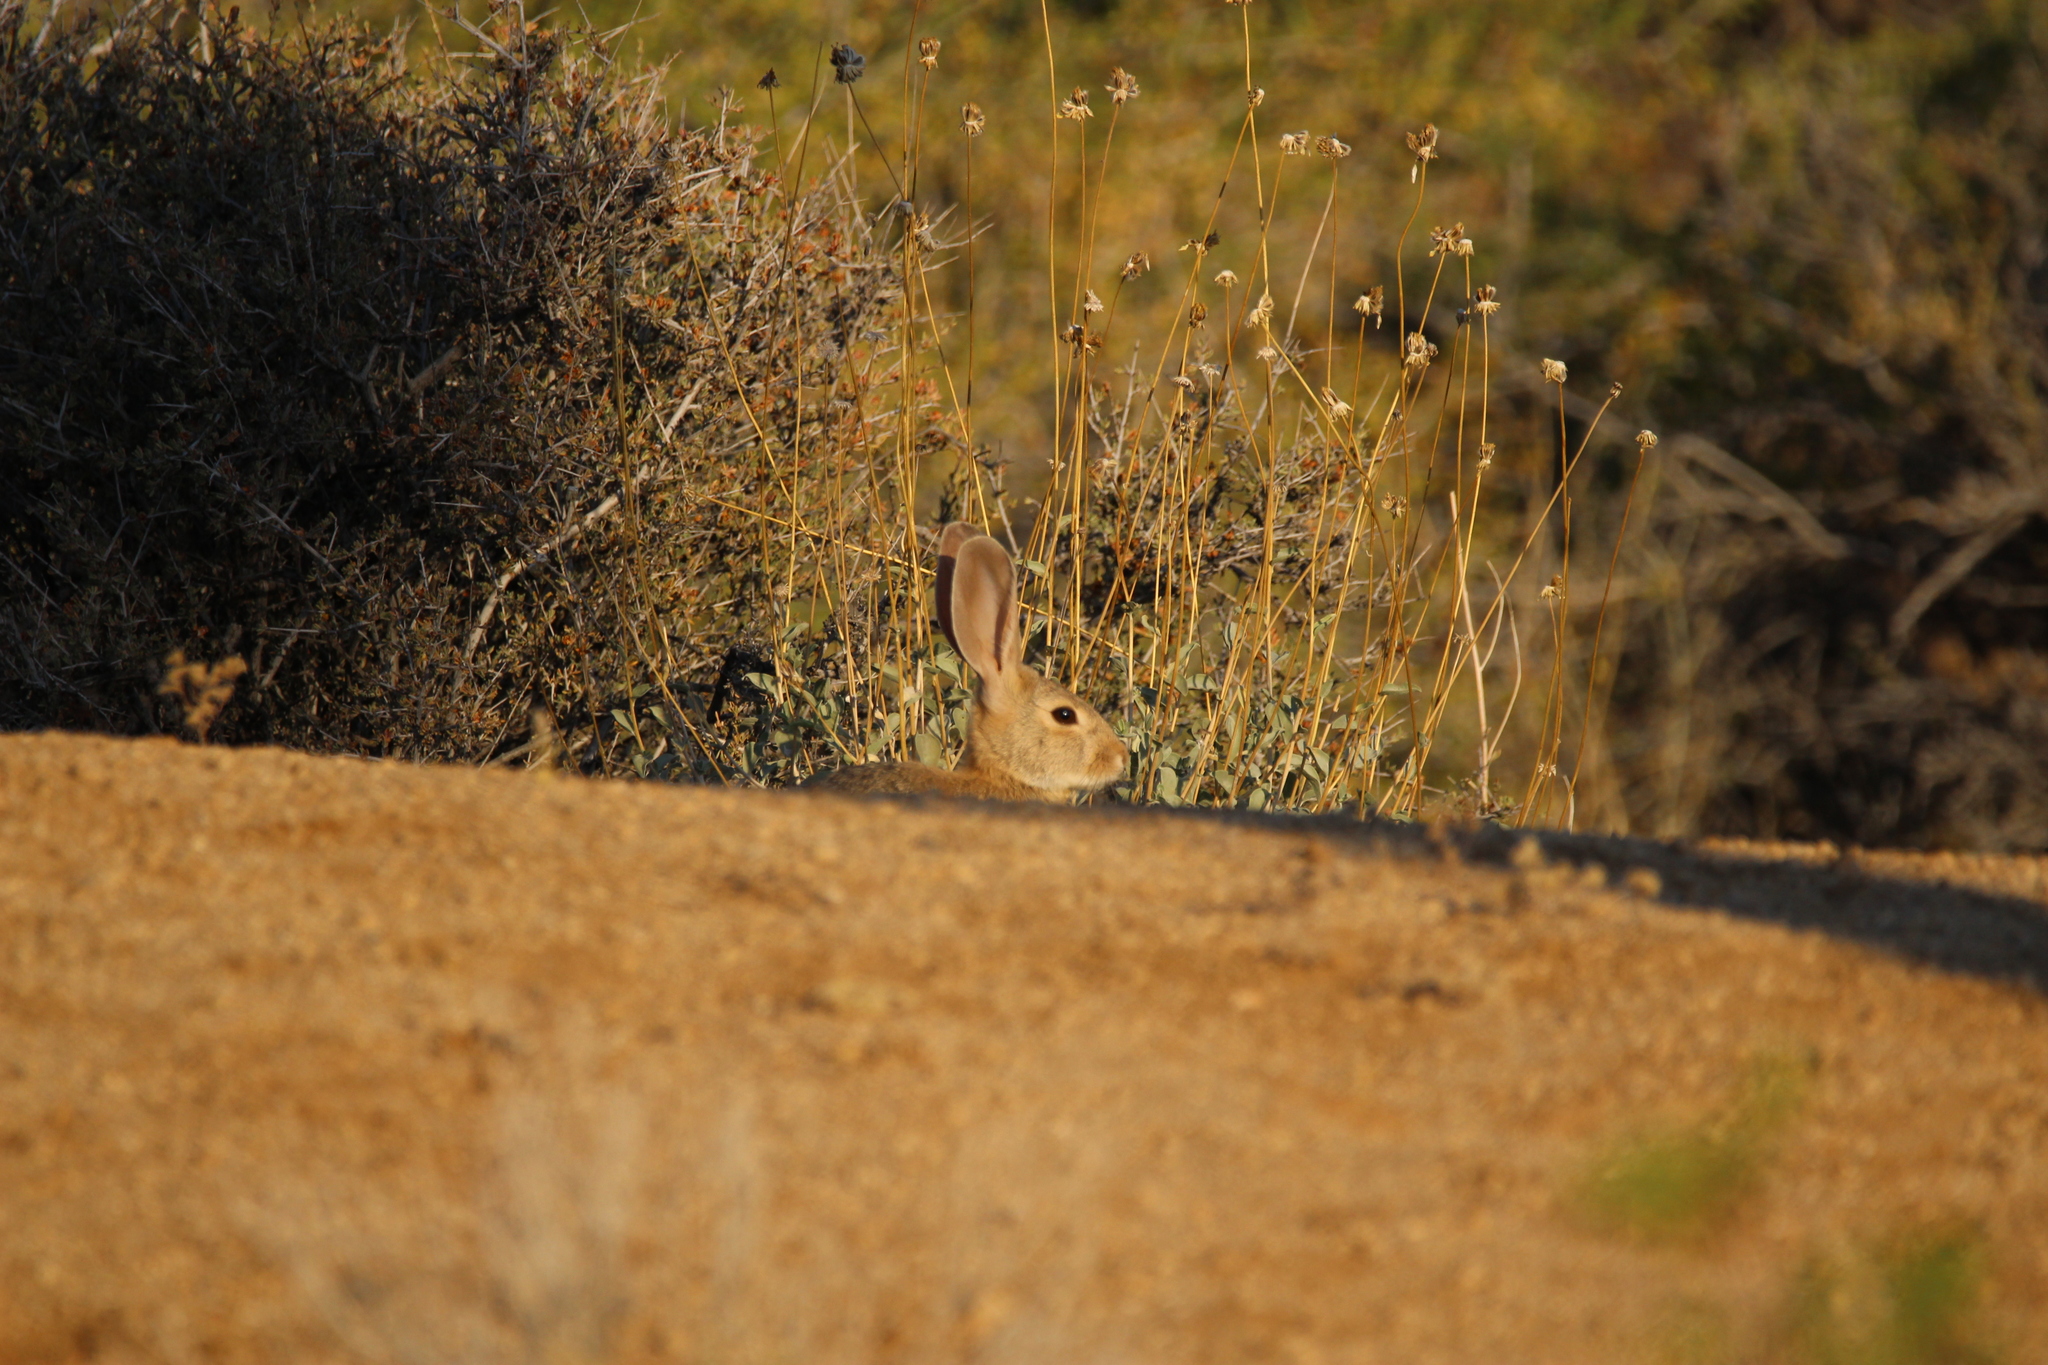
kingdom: Animalia
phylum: Chordata
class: Mammalia
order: Lagomorpha
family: Leporidae
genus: Sylvilagus
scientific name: Sylvilagus audubonii
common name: Desert cottontail
